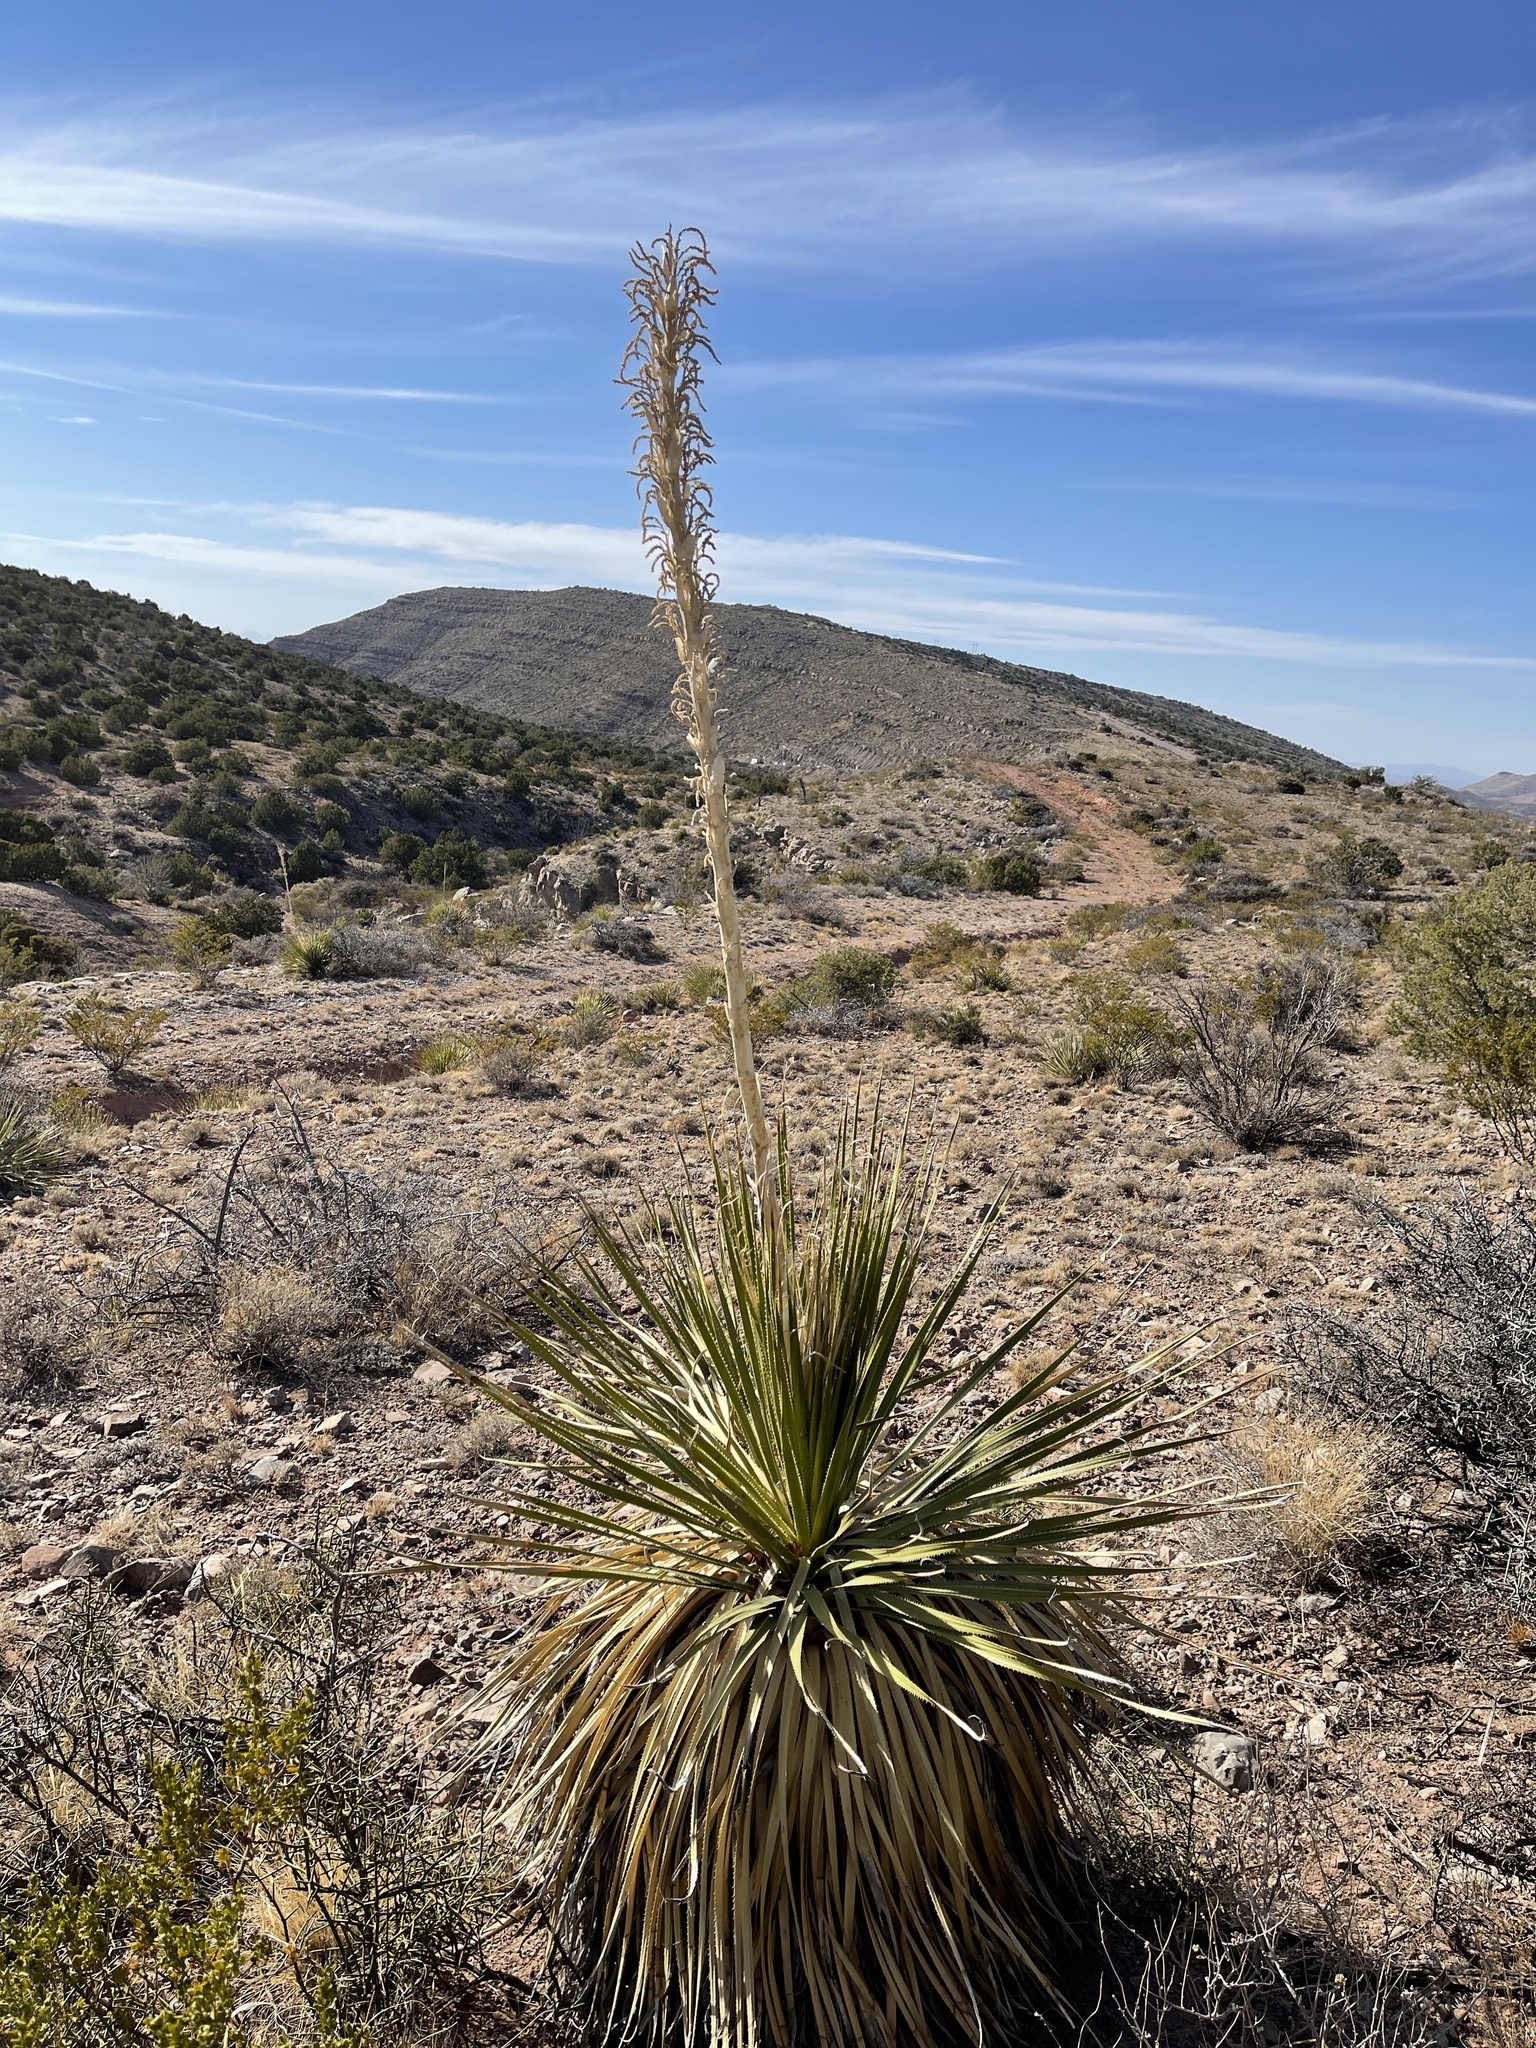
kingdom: Plantae
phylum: Tracheophyta
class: Liliopsida
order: Asparagales
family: Asparagaceae
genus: Dasylirion
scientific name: Dasylirion wheeleri
